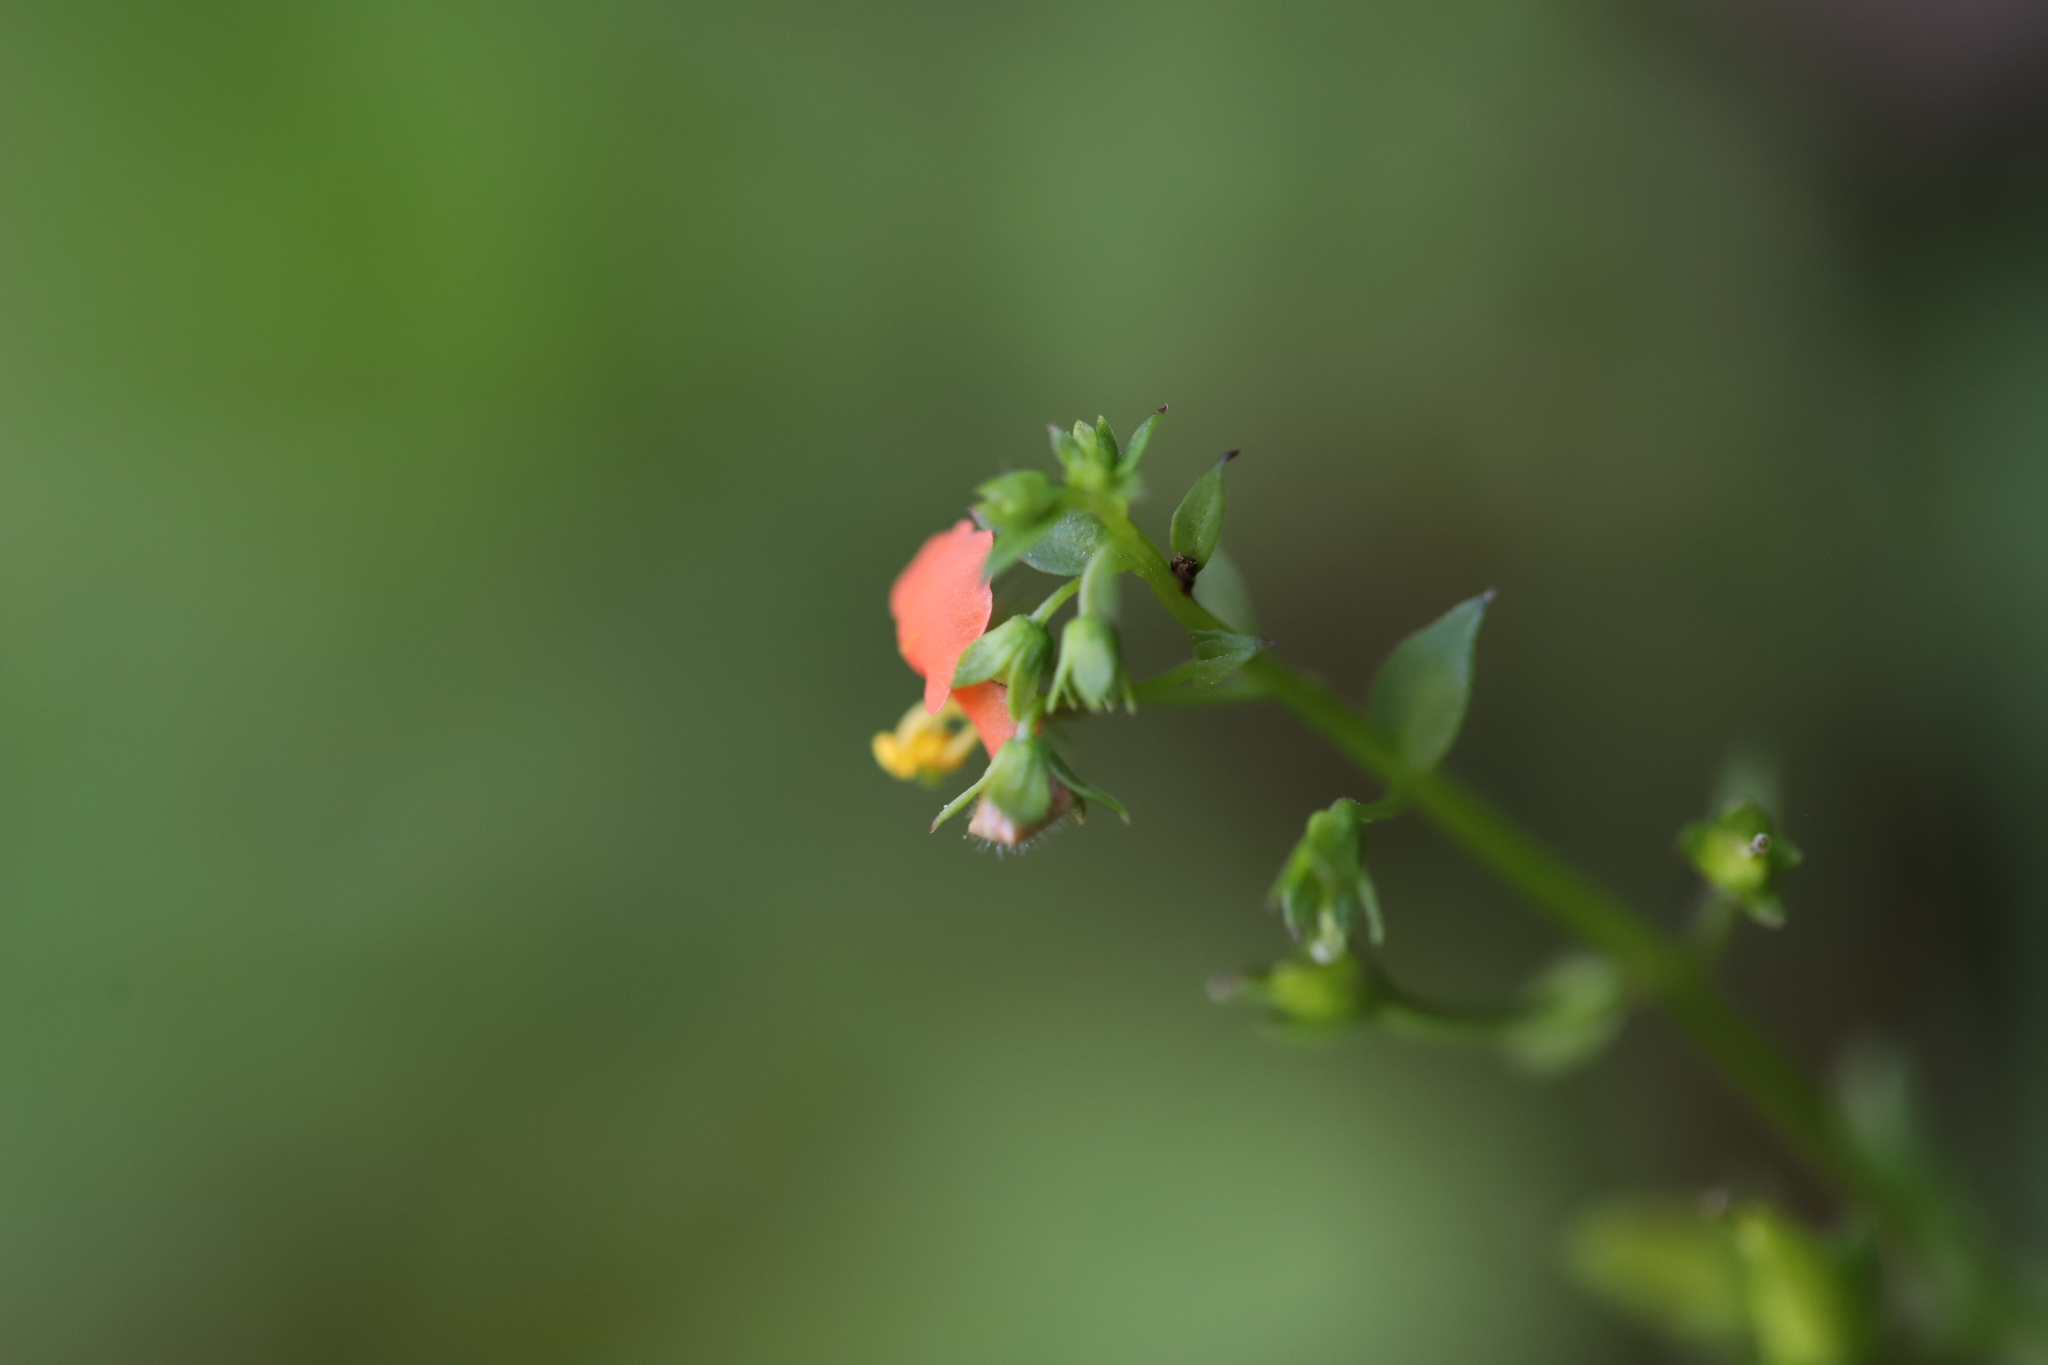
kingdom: Plantae
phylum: Tracheophyta
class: Magnoliopsida
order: Lamiales
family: Scrophulariaceae
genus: Alonsoa
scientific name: Alonsoa meridionalis
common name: Maskflower
